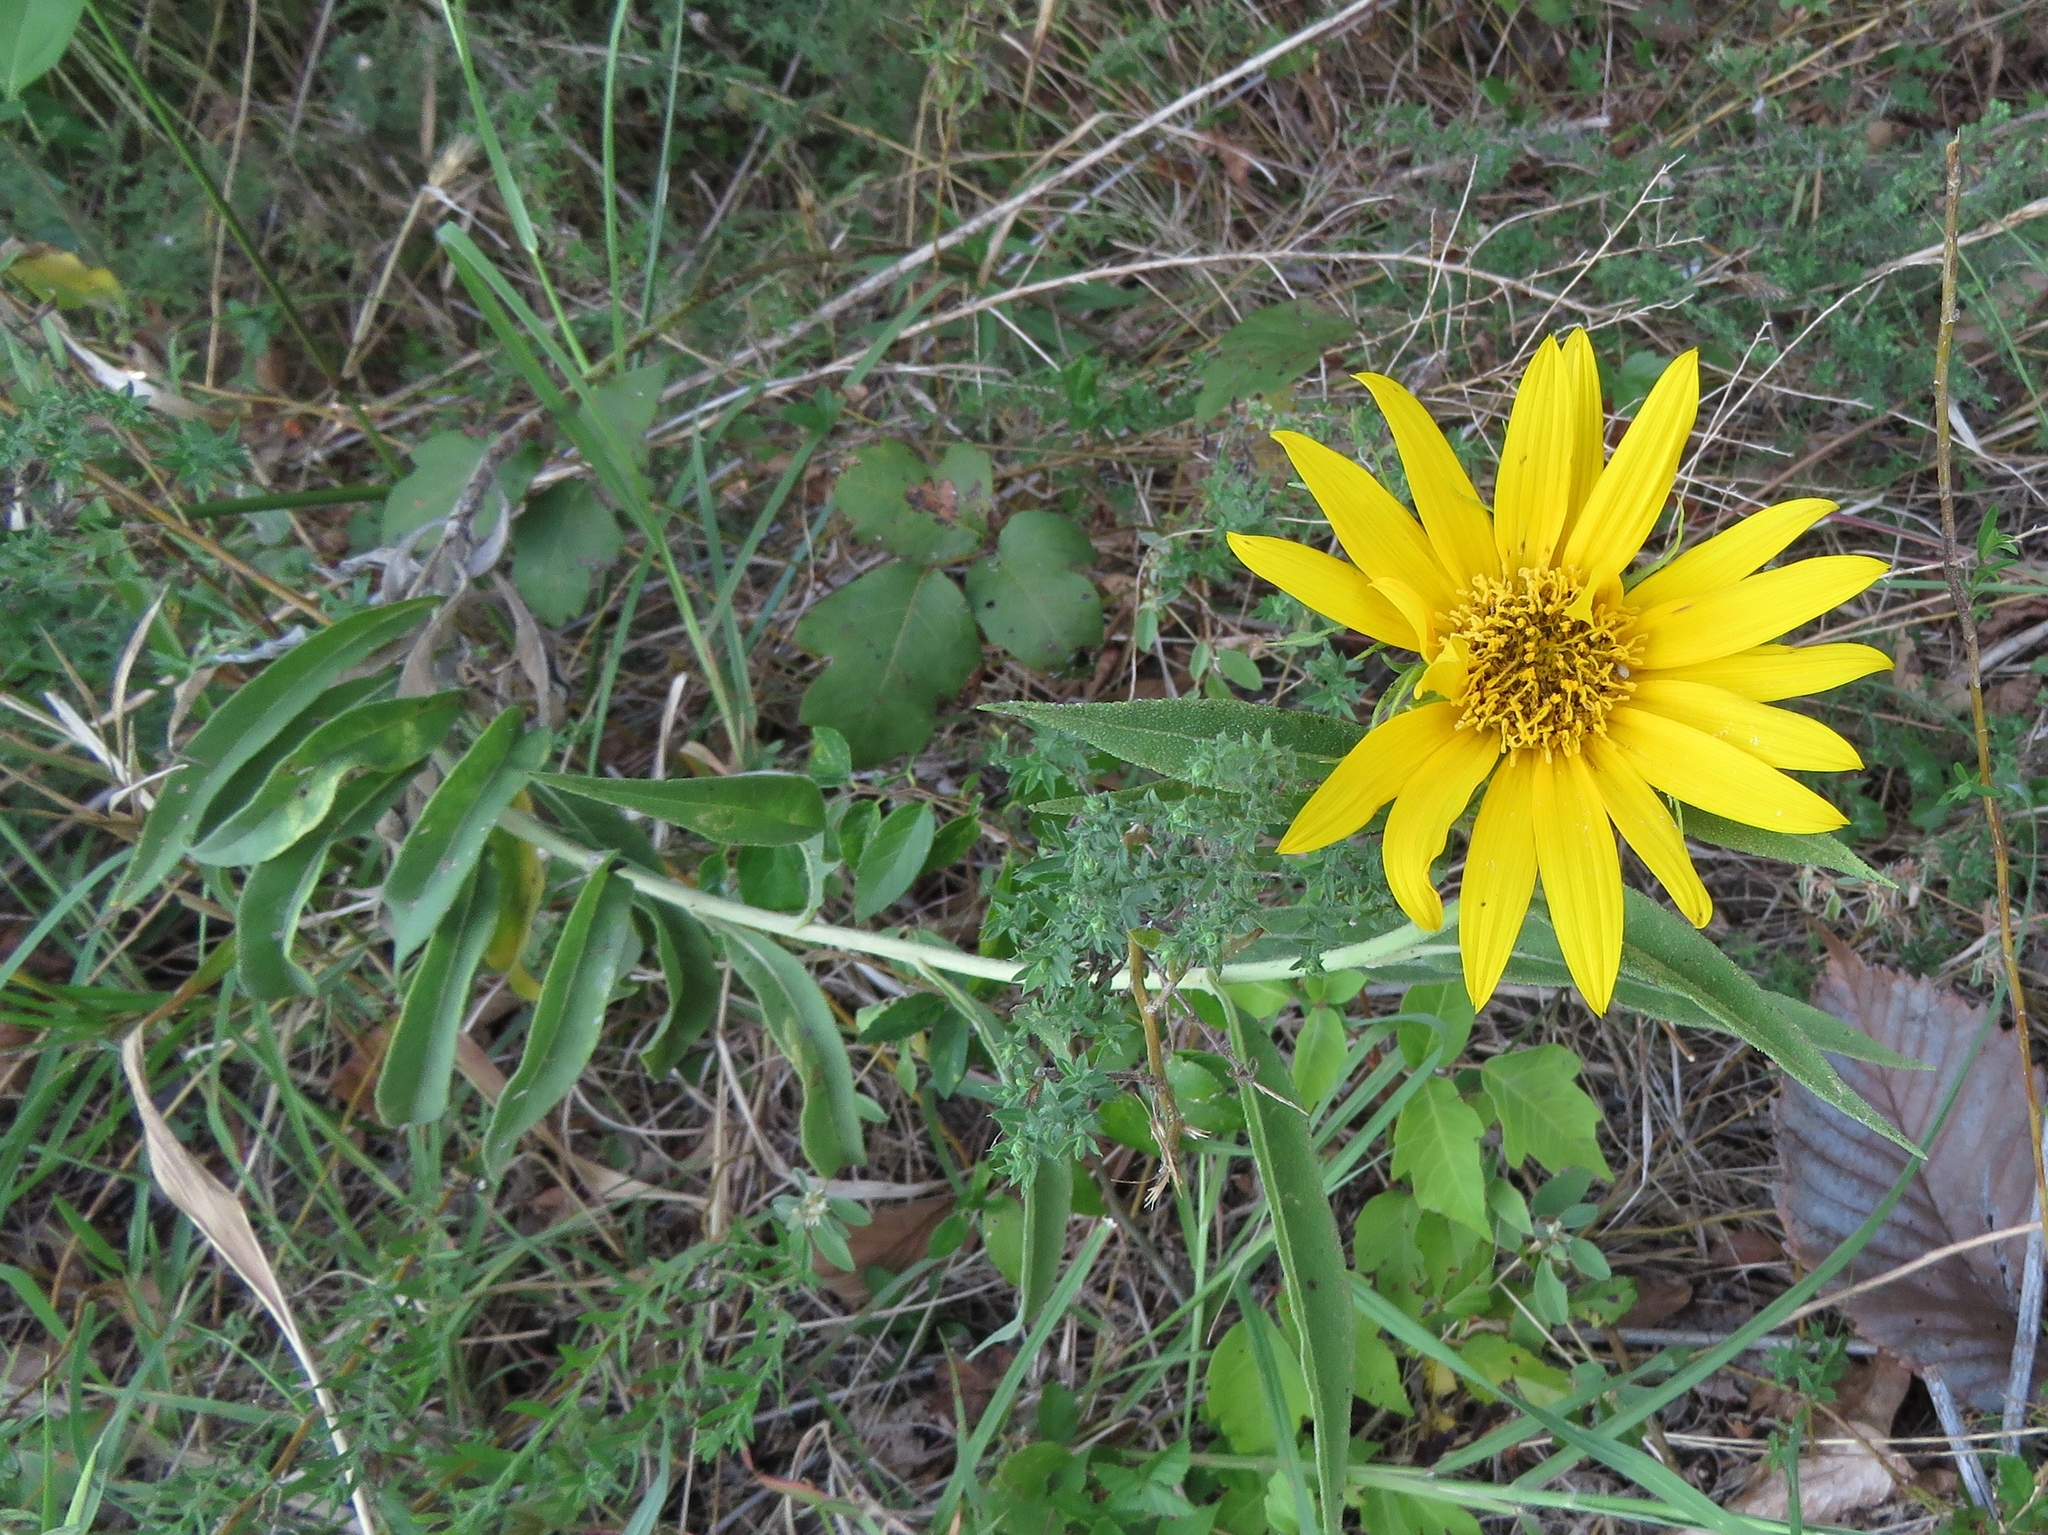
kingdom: Plantae
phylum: Tracheophyta
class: Magnoliopsida
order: Asterales
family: Asteraceae
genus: Helianthus
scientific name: Helianthus maximiliani
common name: Maximilian's sunflower
